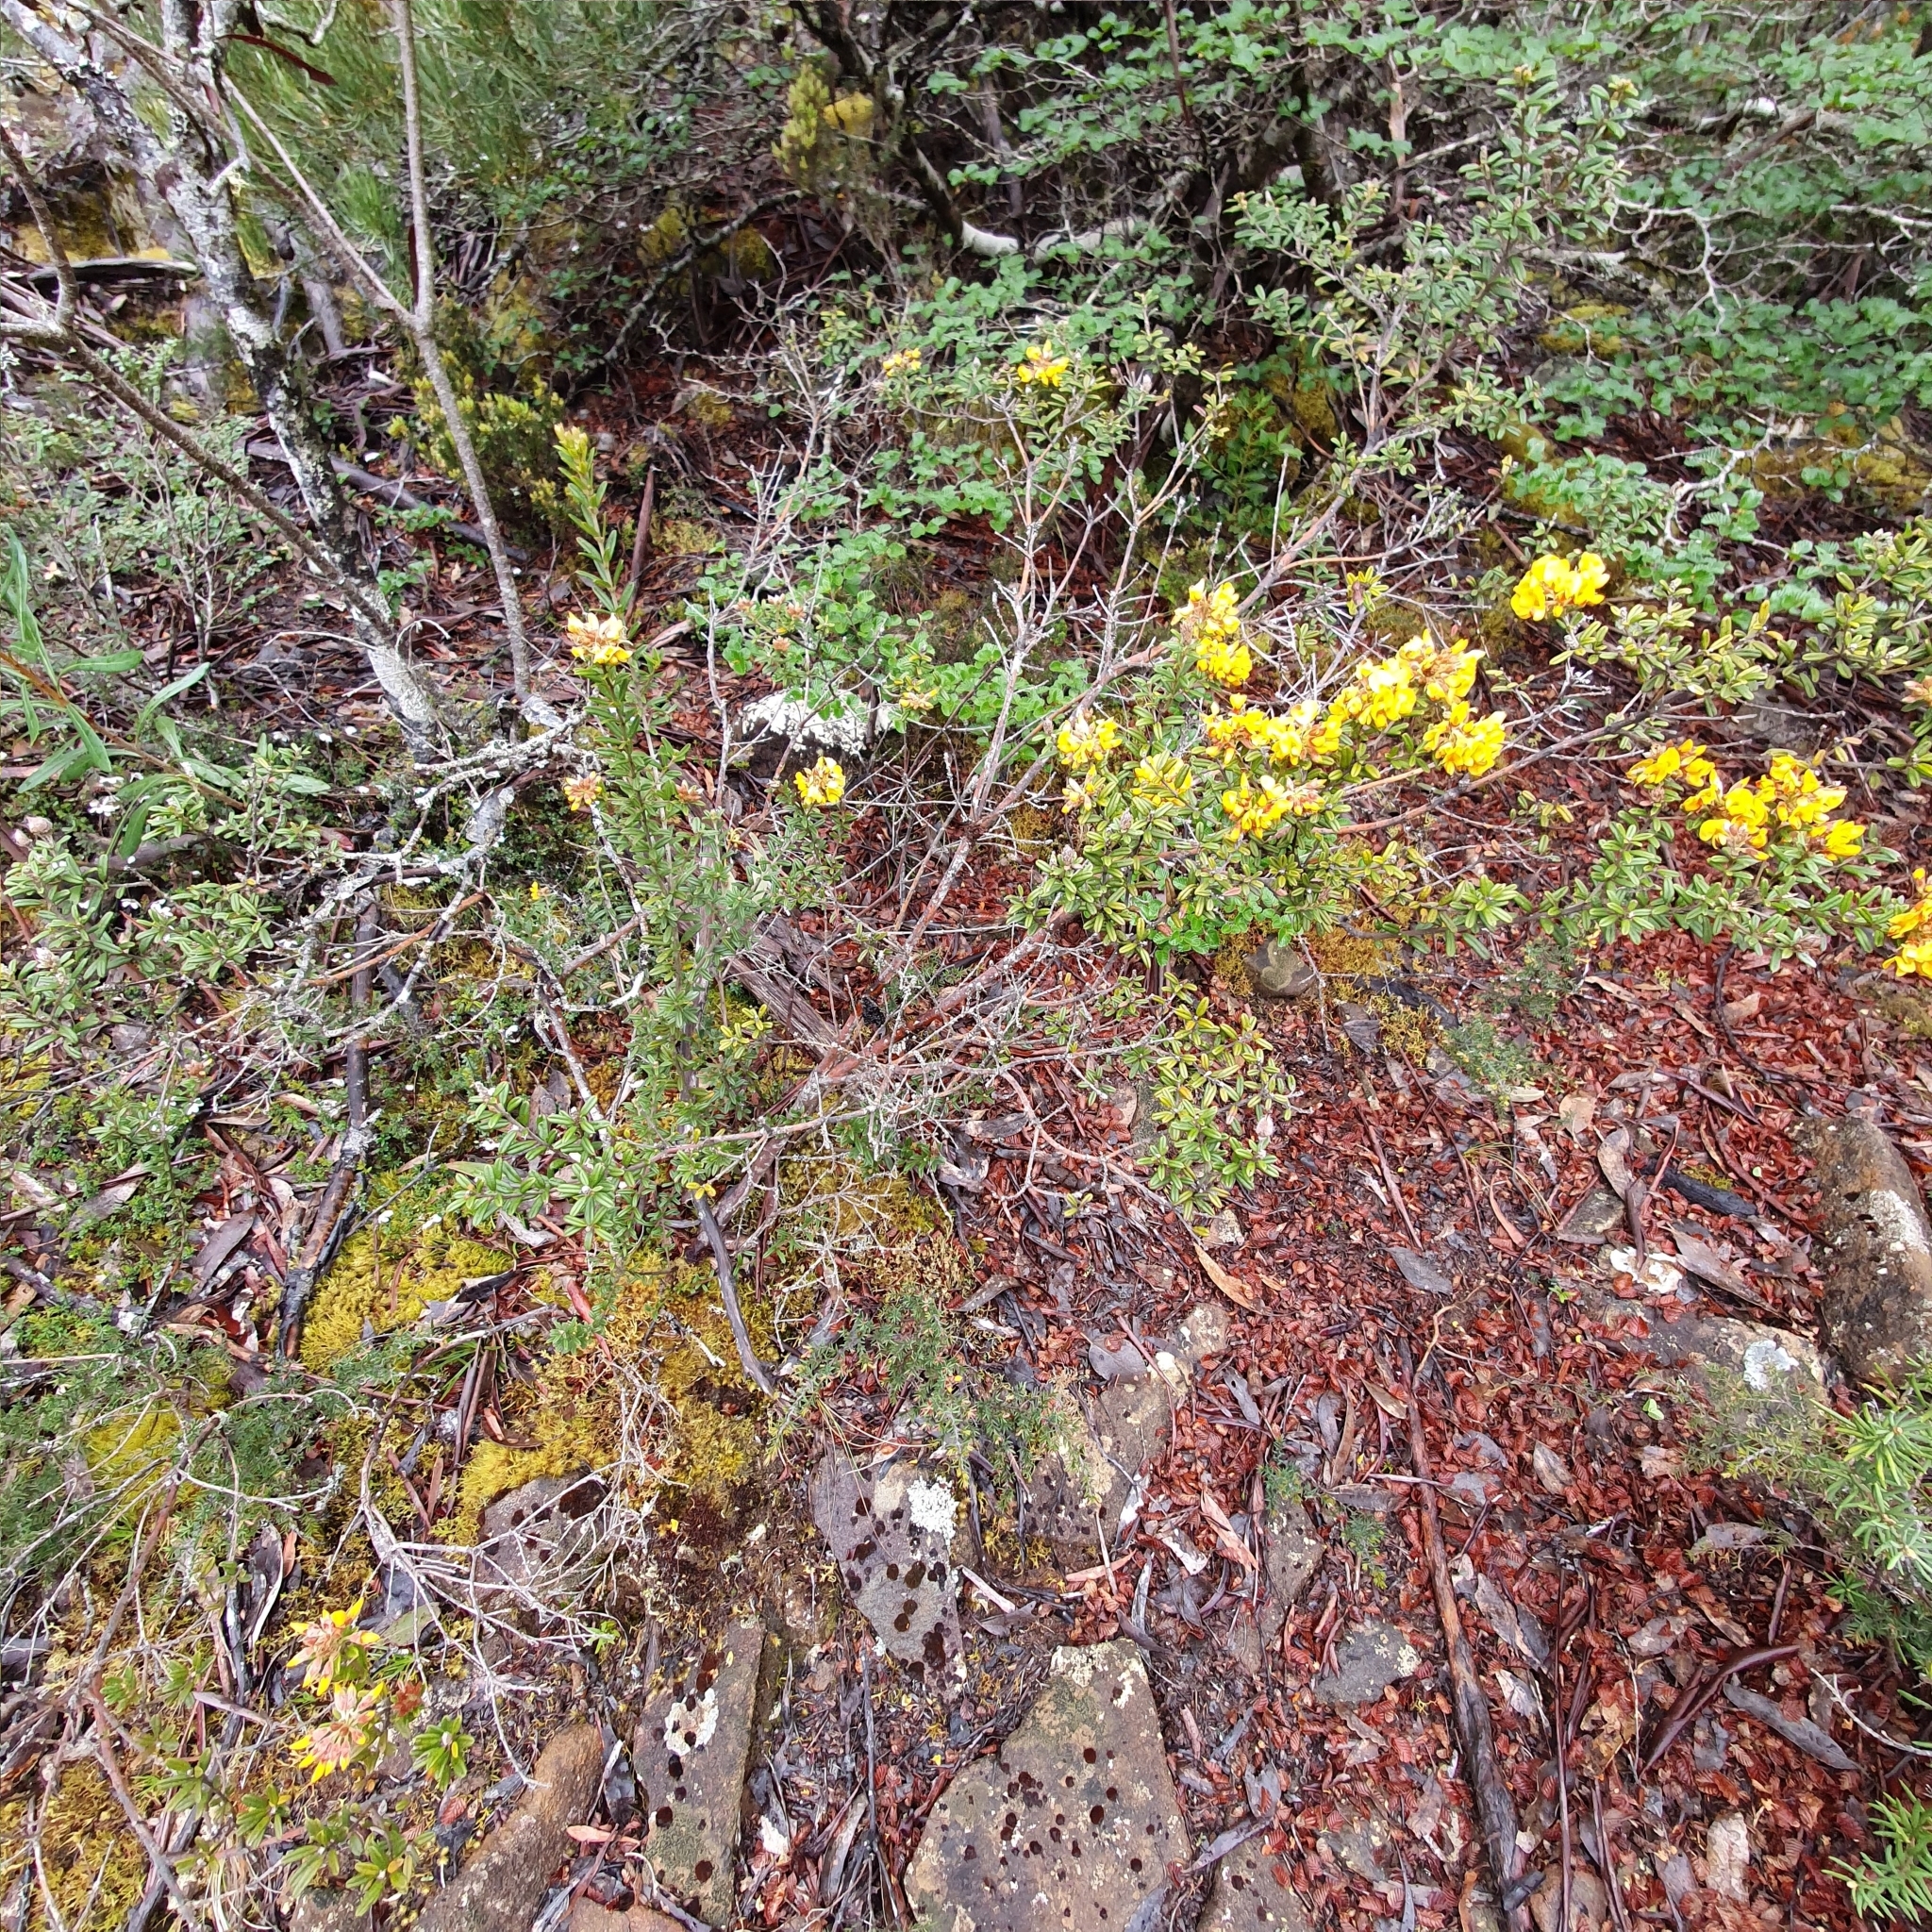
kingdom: Plantae
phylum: Tracheophyta
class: Magnoliopsida
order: Fabales
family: Fabaceae
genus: Oxylobium
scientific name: Oxylobium ellipticum
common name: Golden shaggy-pea
